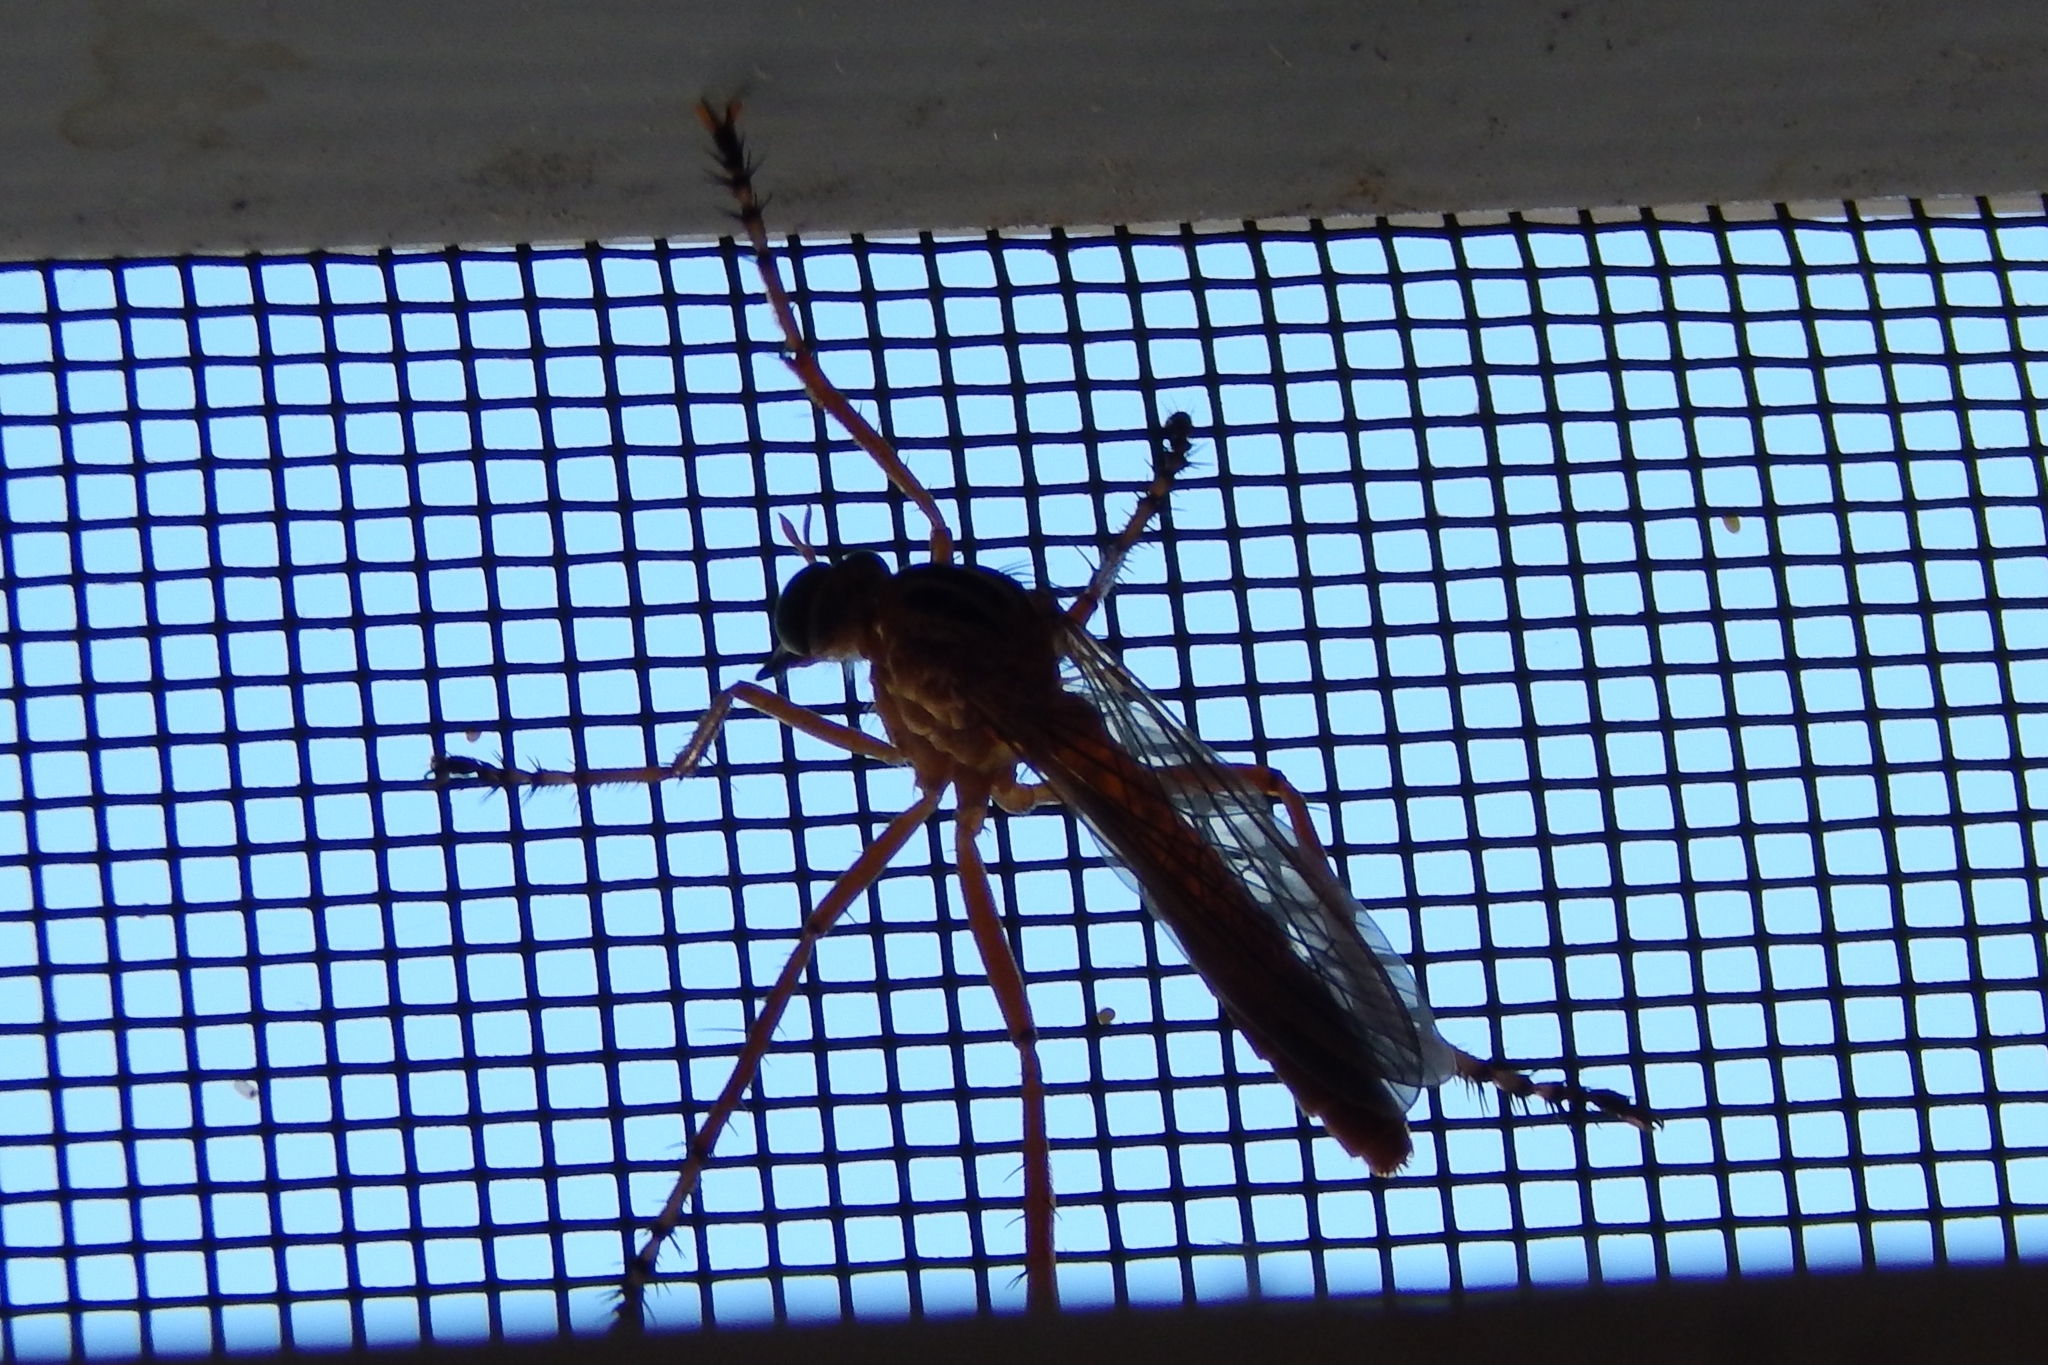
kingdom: Animalia
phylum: Arthropoda
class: Insecta
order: Diptera
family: Asilidae
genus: Diogmites
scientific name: Diogmites
